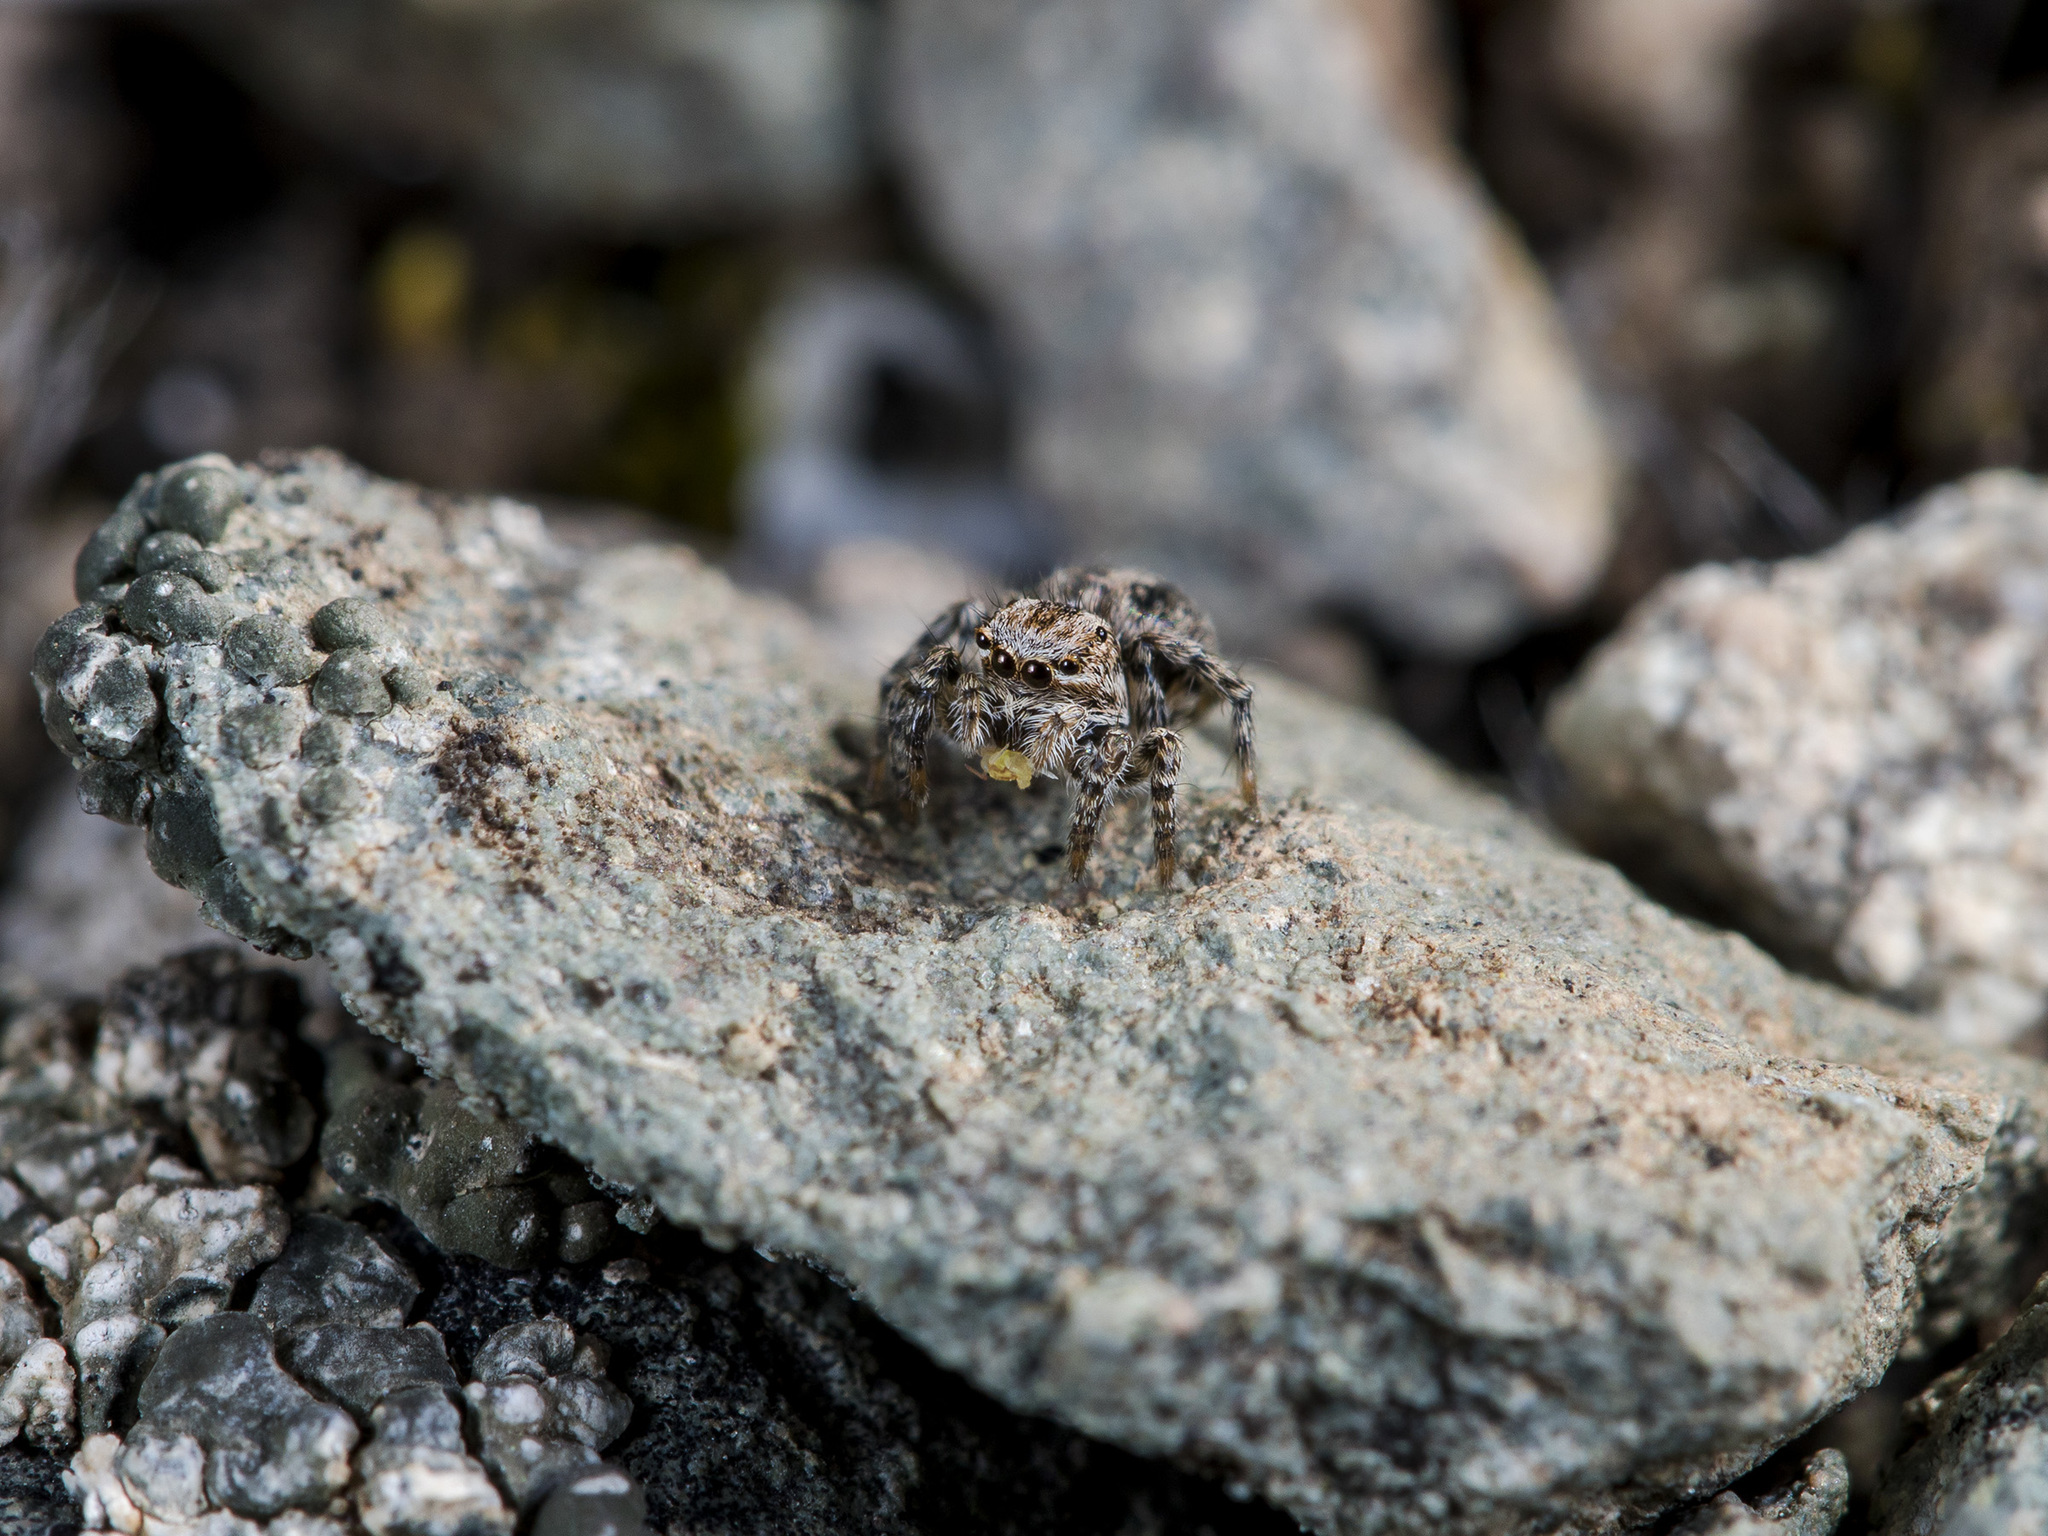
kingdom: Animalia
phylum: Arthropoda
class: Arachnida
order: Araneae
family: Salticidae
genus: Aelurillus
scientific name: Aelurillus v-insignitus
